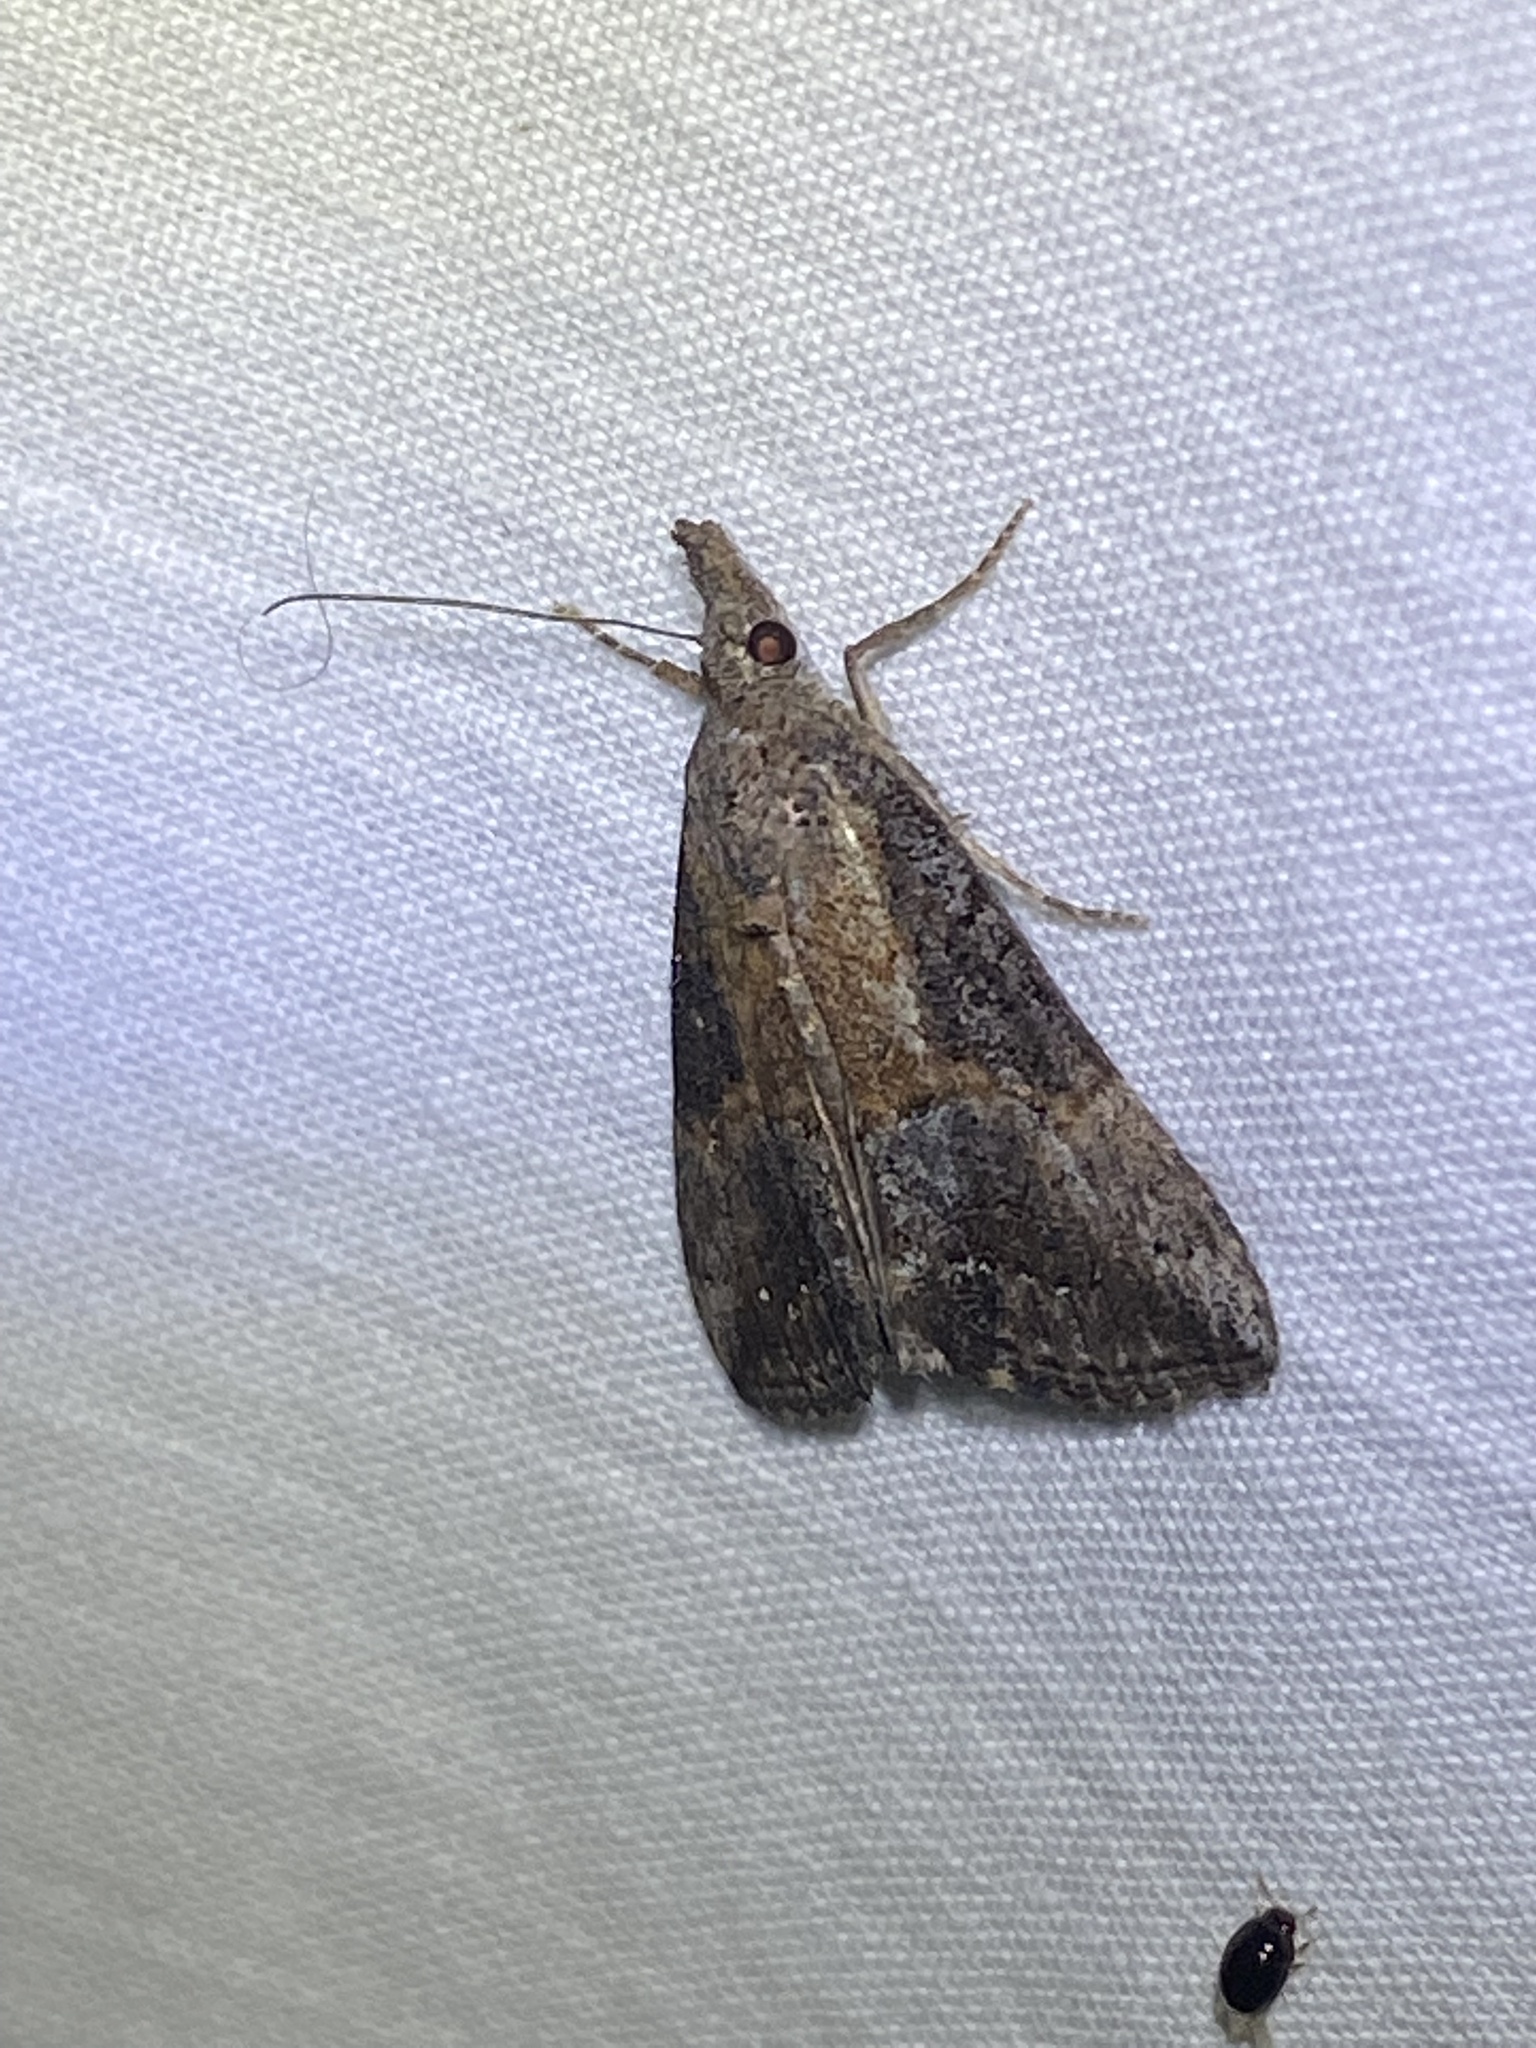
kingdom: Animalia
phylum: Arthropoda
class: Insecta
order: Lepidoptera
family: Erebidae
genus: Hypena
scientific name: Hypena scabra
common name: Green cloverworm
